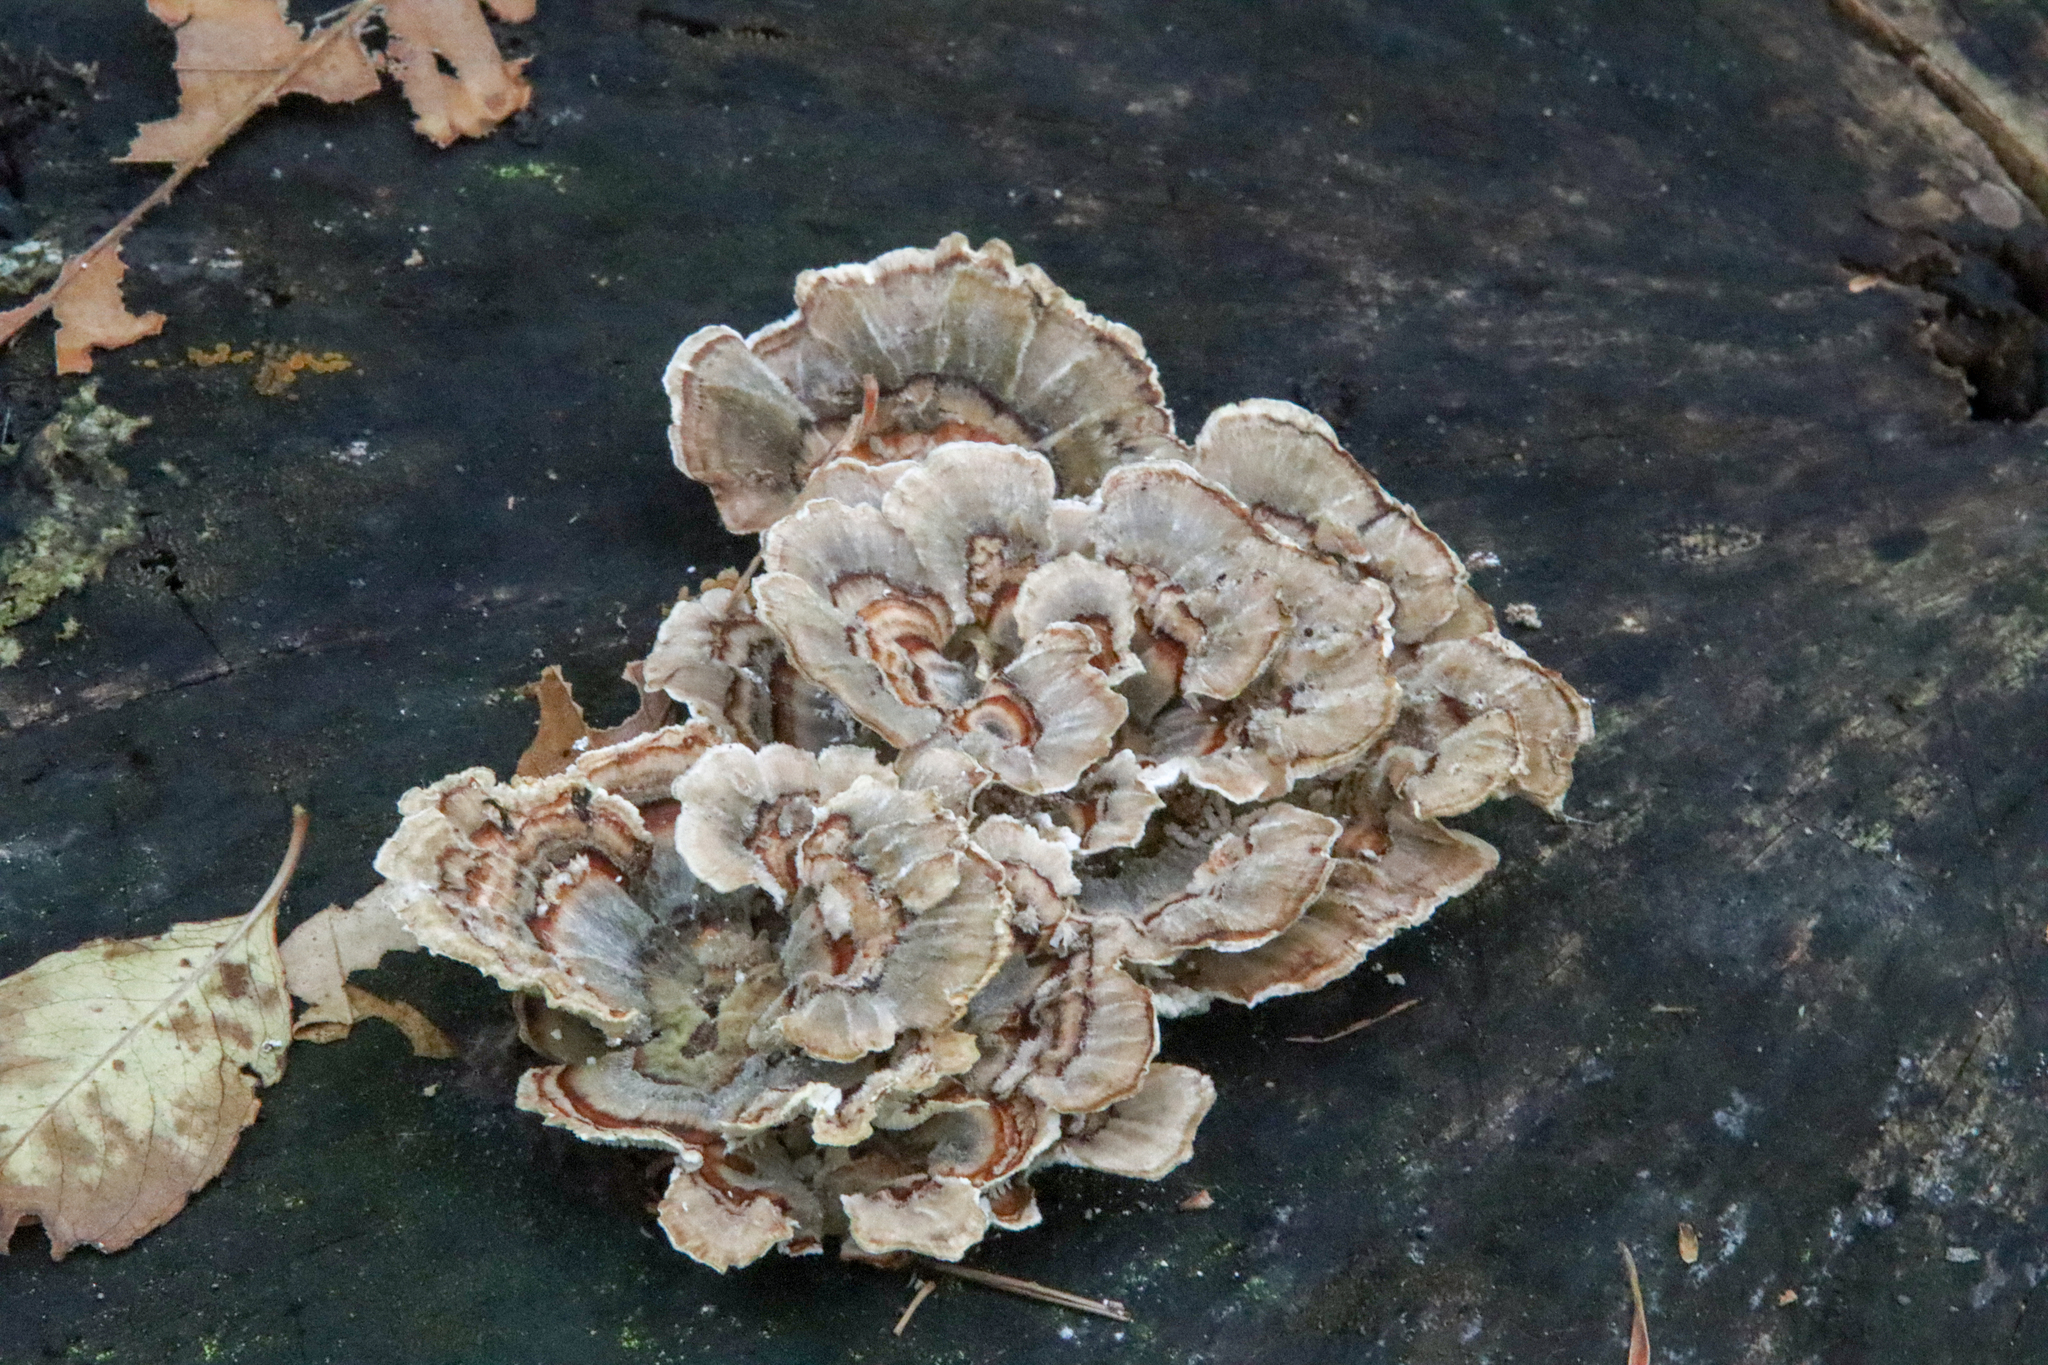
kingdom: Fungi
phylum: Basidiomycota
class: Agaricomycetes
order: Polyporales
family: Polyporaceae
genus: Trametes
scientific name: Trametes versicolor
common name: Turkeytail
